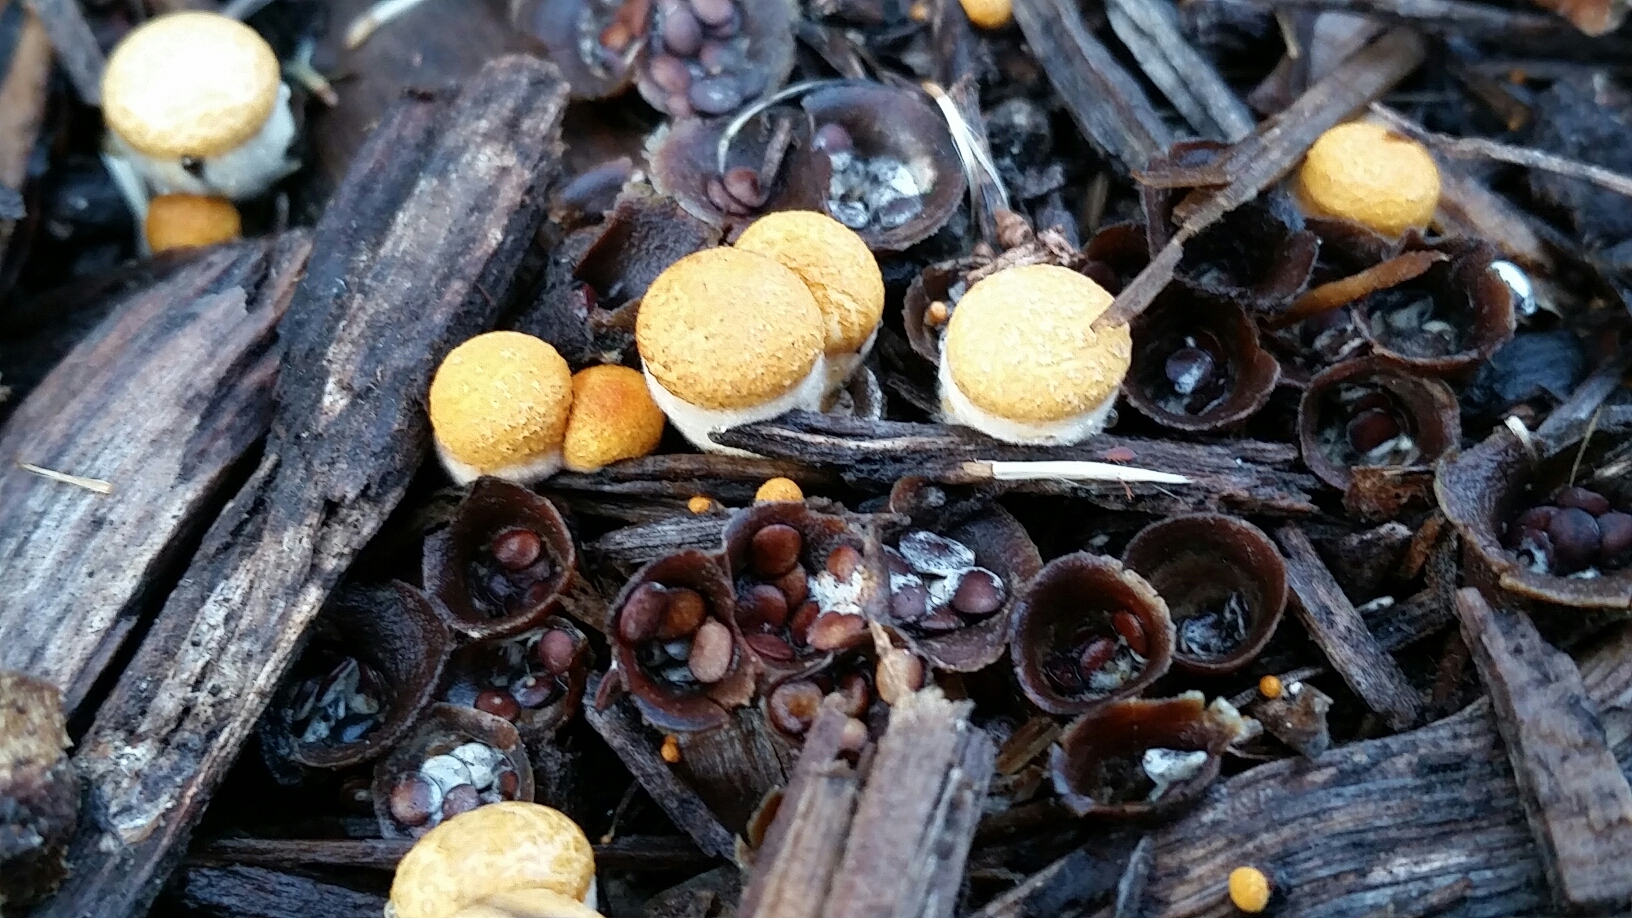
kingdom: Fungi
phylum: Basidiomycota
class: Agaricomycetes
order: Agaricales
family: Nidulariaceae
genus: Crucibulum
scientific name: Crucibulum laeve
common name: Common bird's nest
